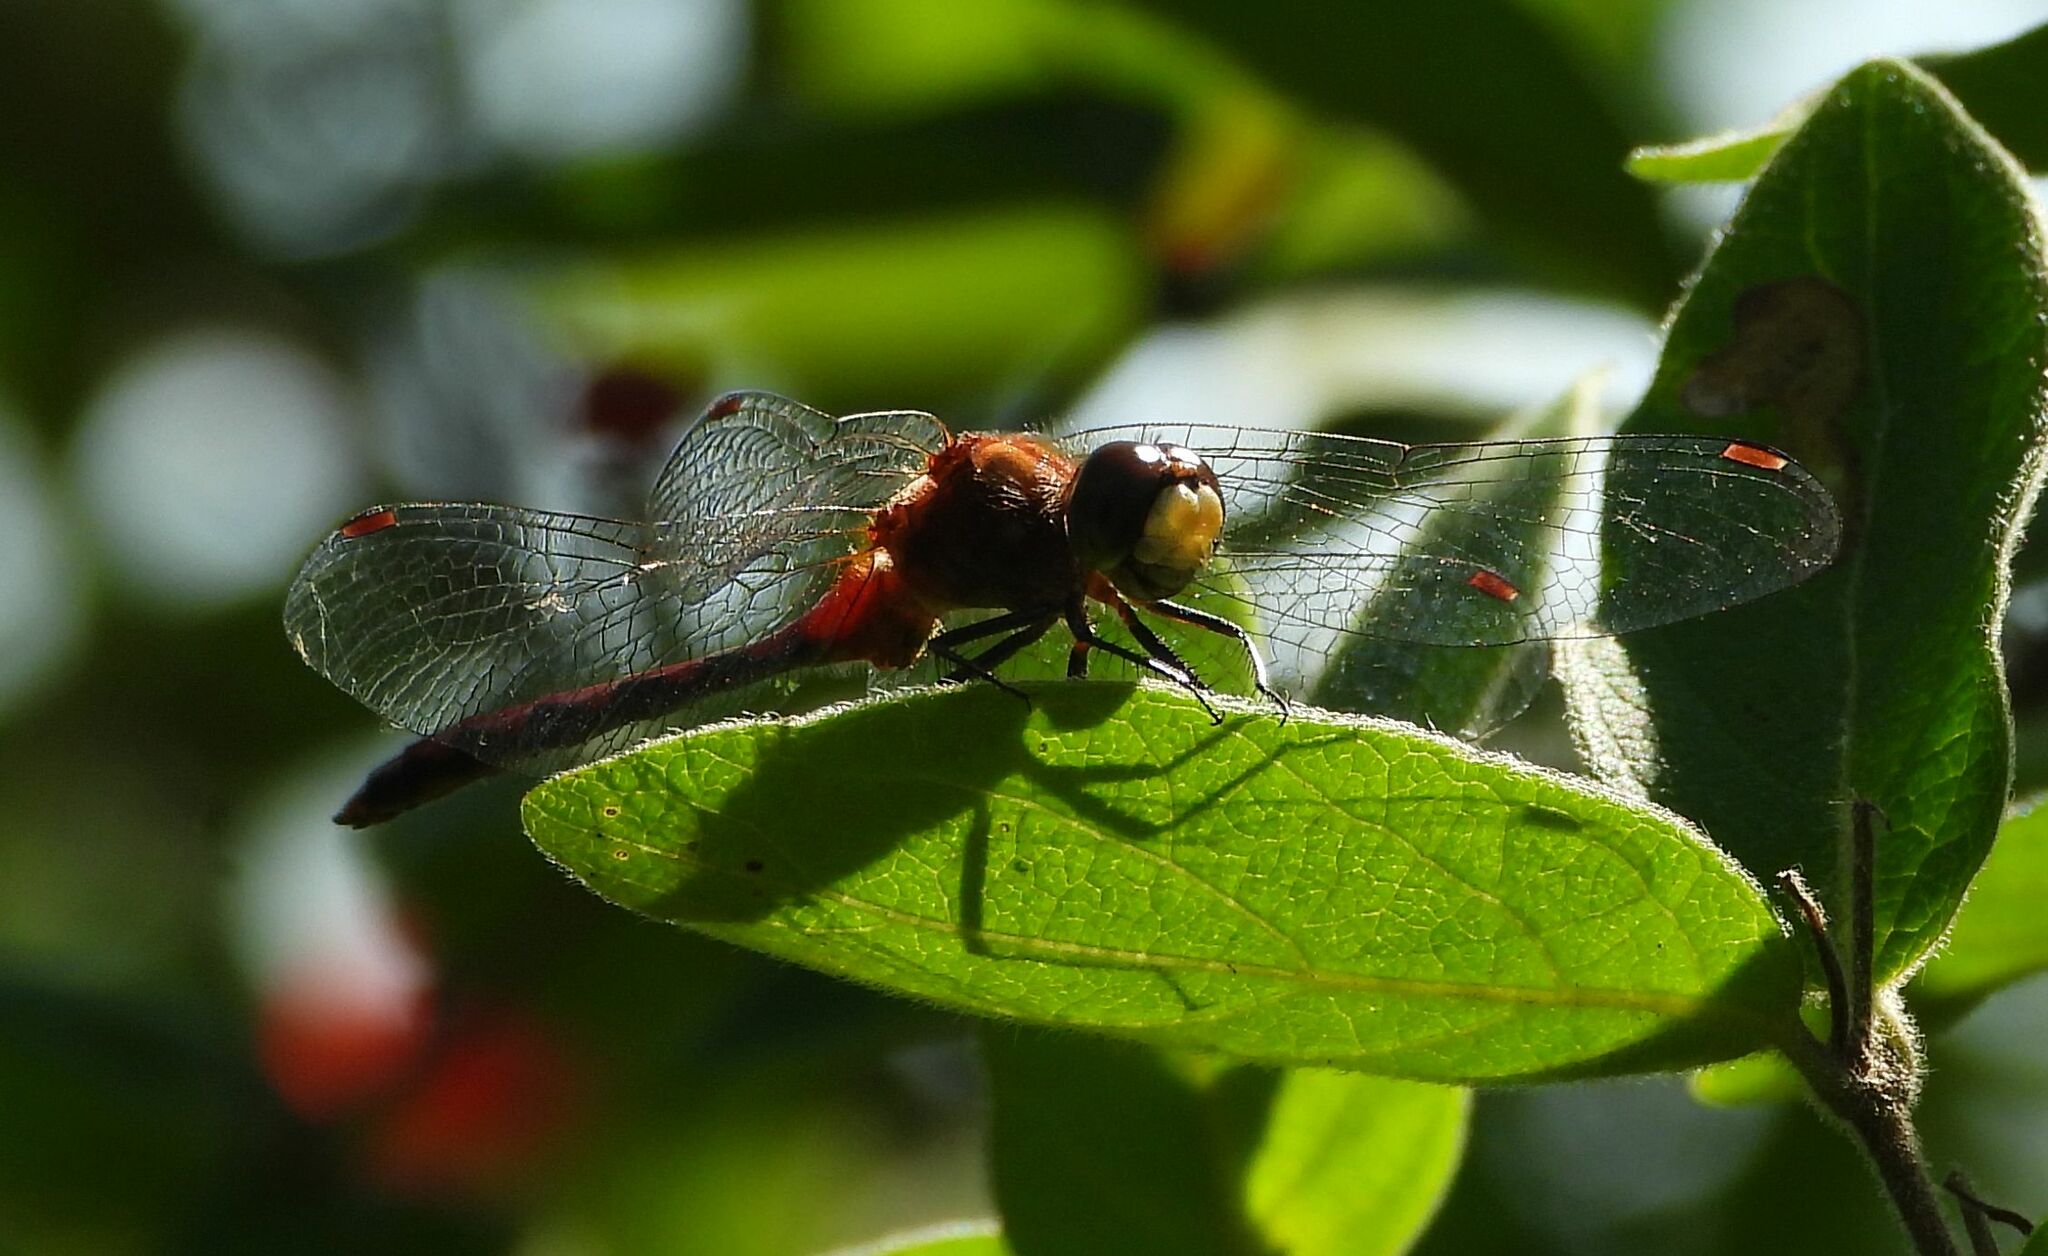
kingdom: Animalia
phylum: Arthropoda
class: Insecta
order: Odonata
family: Libellulidae
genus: Sympetrum
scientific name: Sympetrum obtrusum
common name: White-faced meadowhawk
